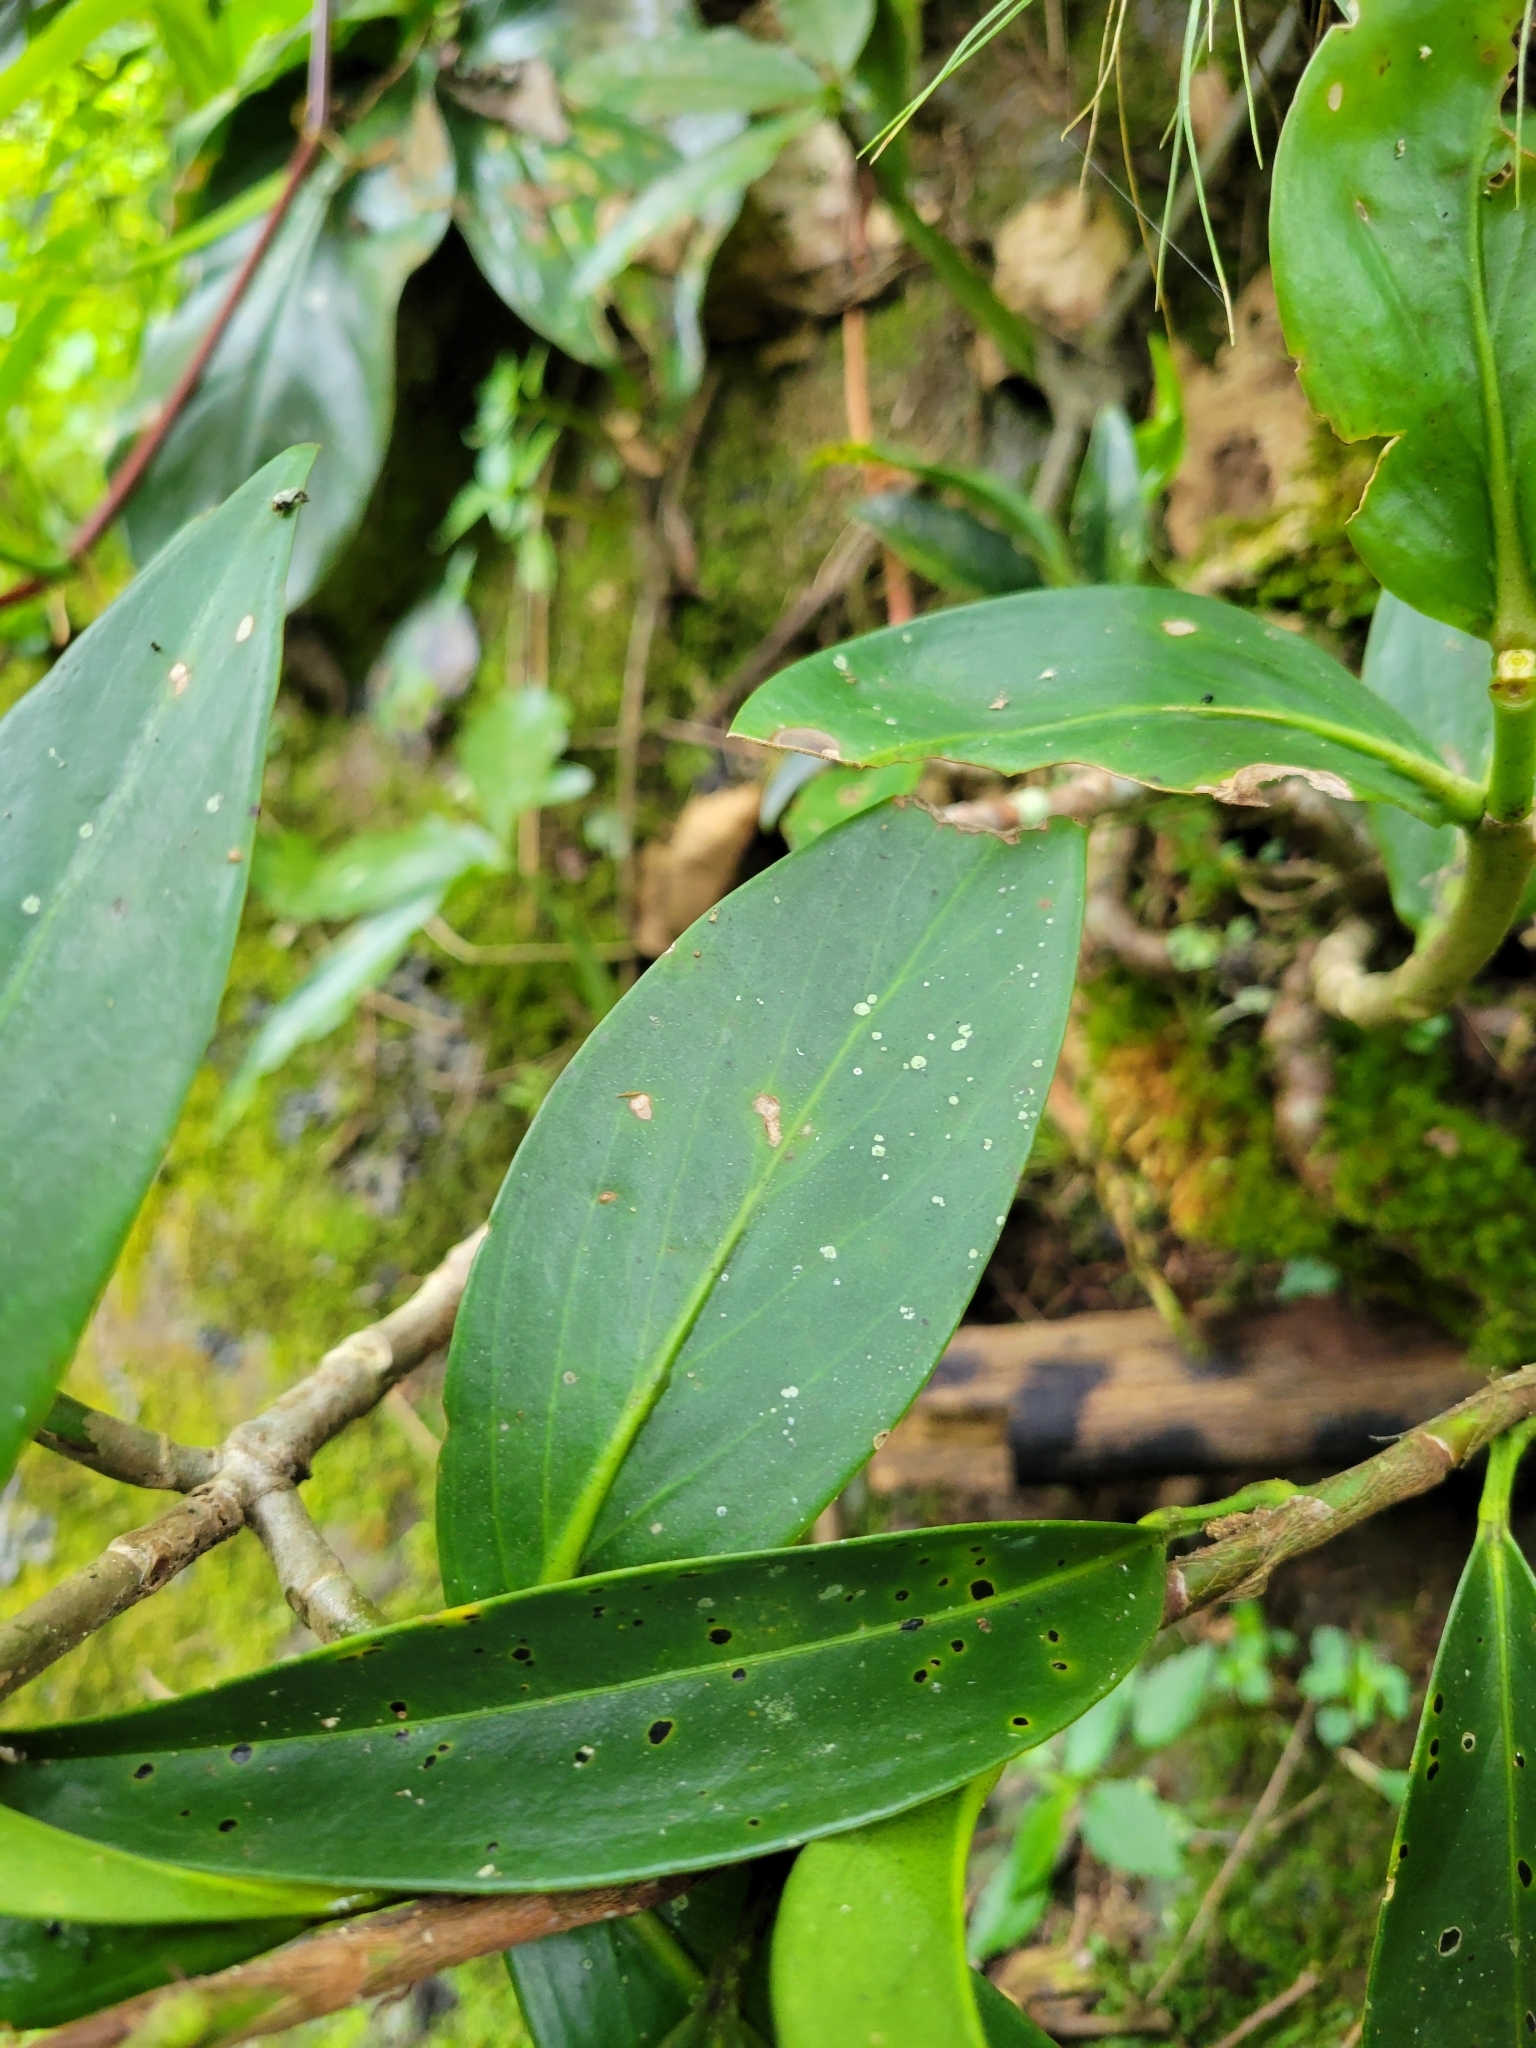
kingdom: Plantae
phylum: Tracheophyta
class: Liliopsida
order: Alismatales
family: Araceae
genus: Anthurium
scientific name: Anthurium scandens
